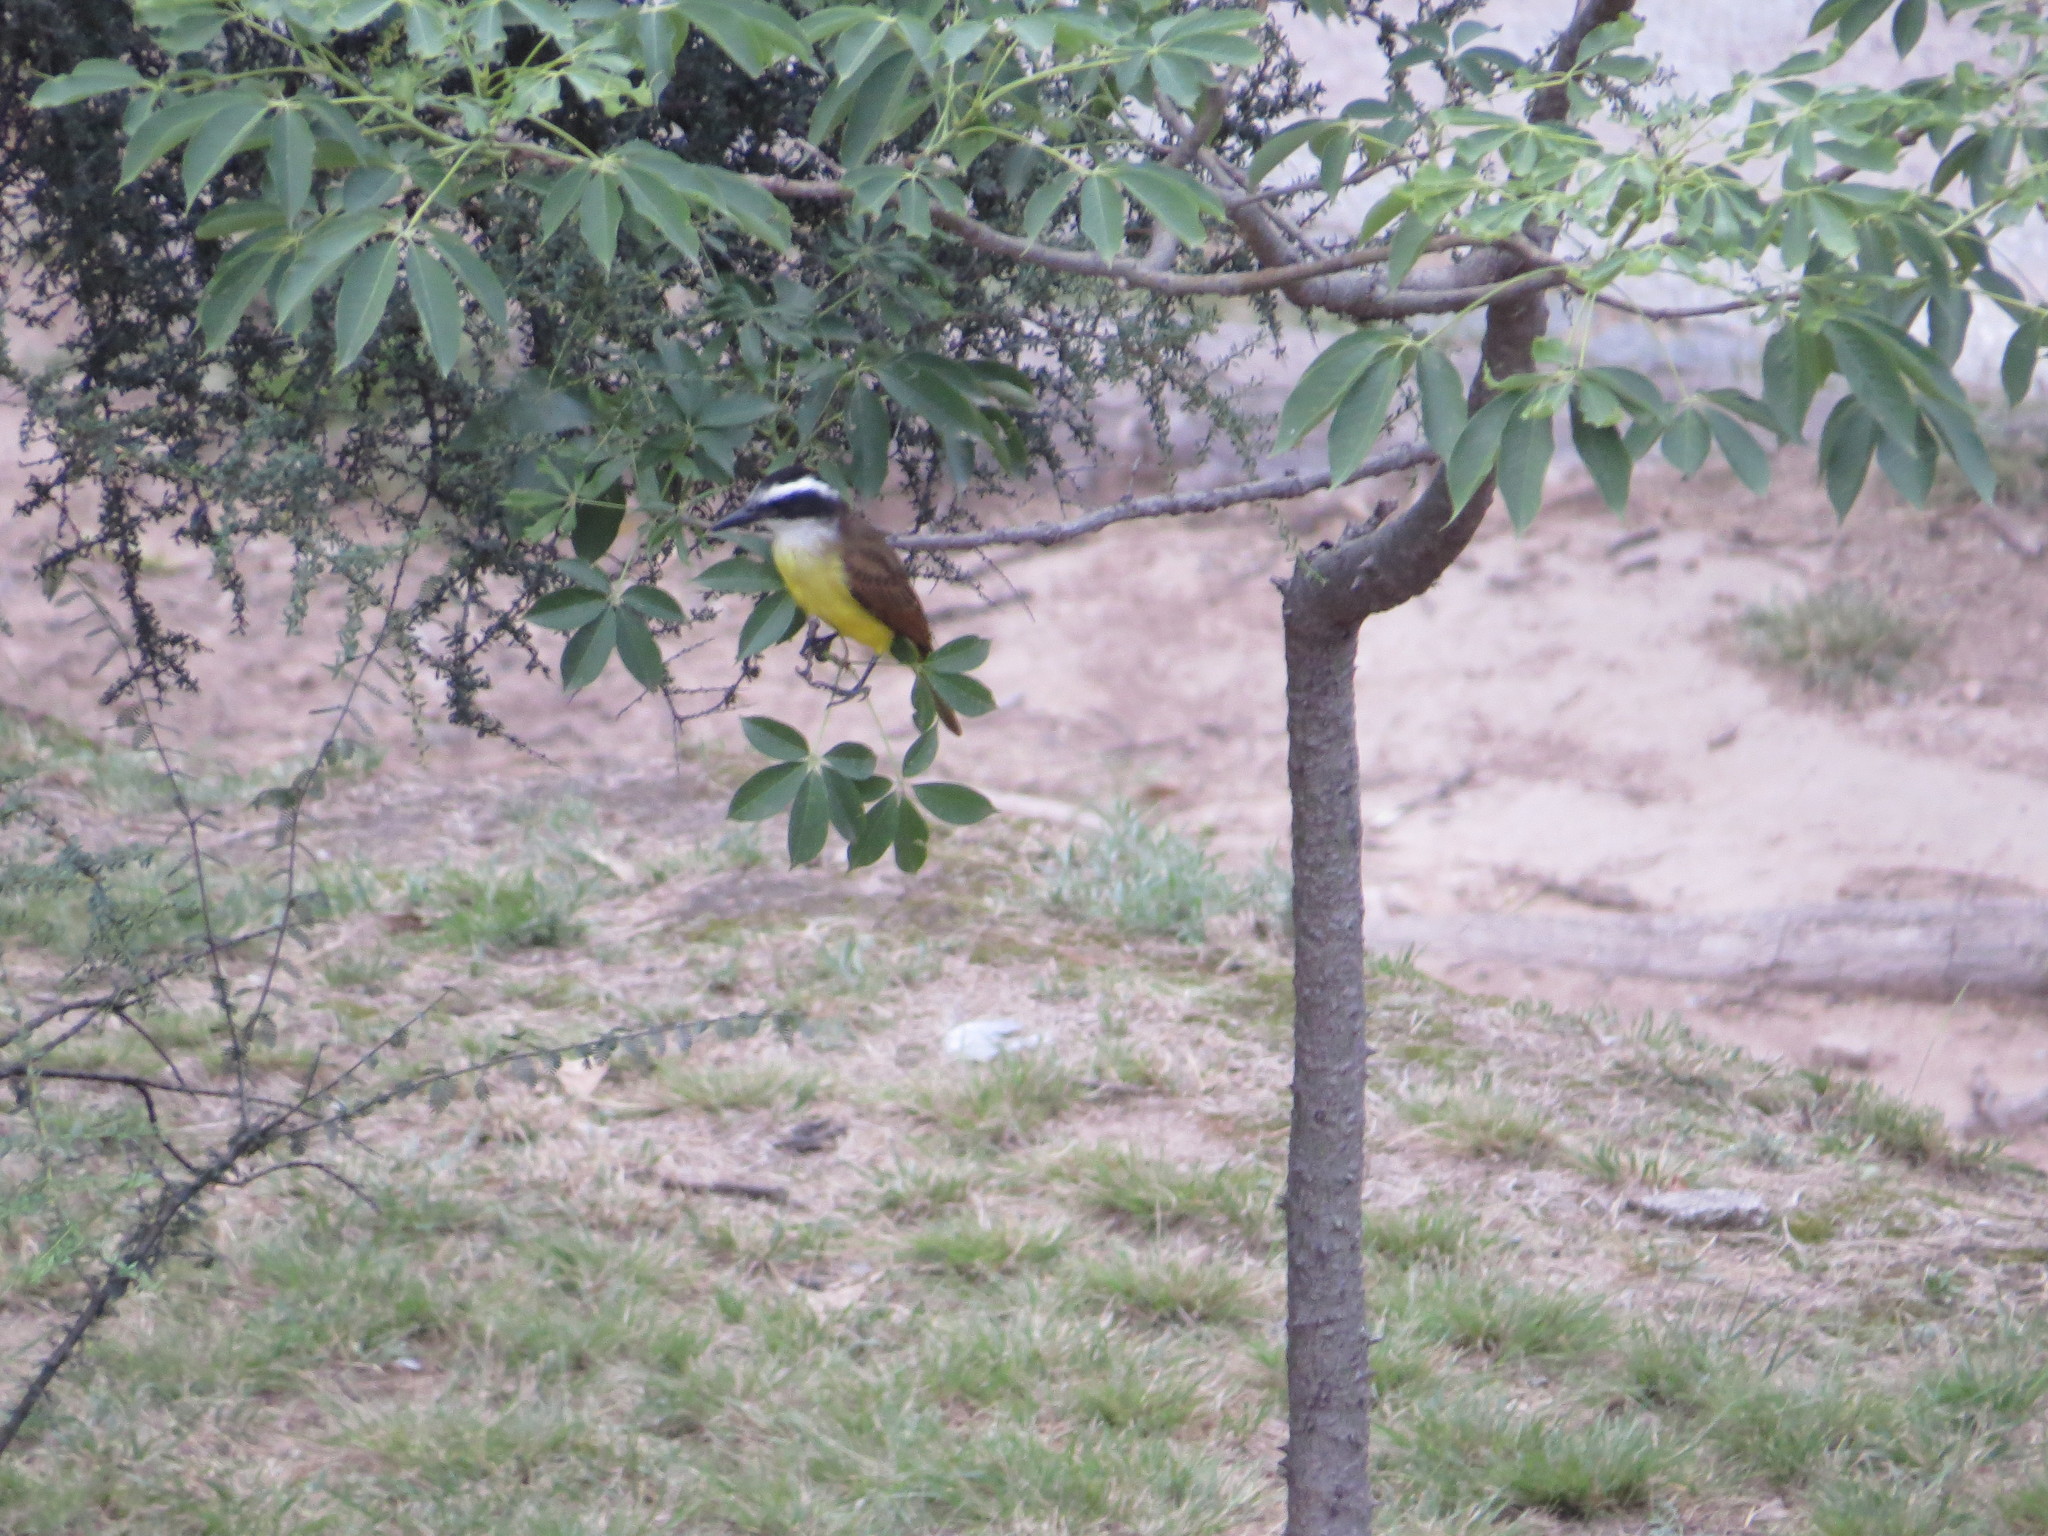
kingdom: Animalia
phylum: Chordata
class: Aves
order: Passeriformes
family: Tyrannidae
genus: Pitangus
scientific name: Pitangus sulphuratus
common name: Great kiskadee
